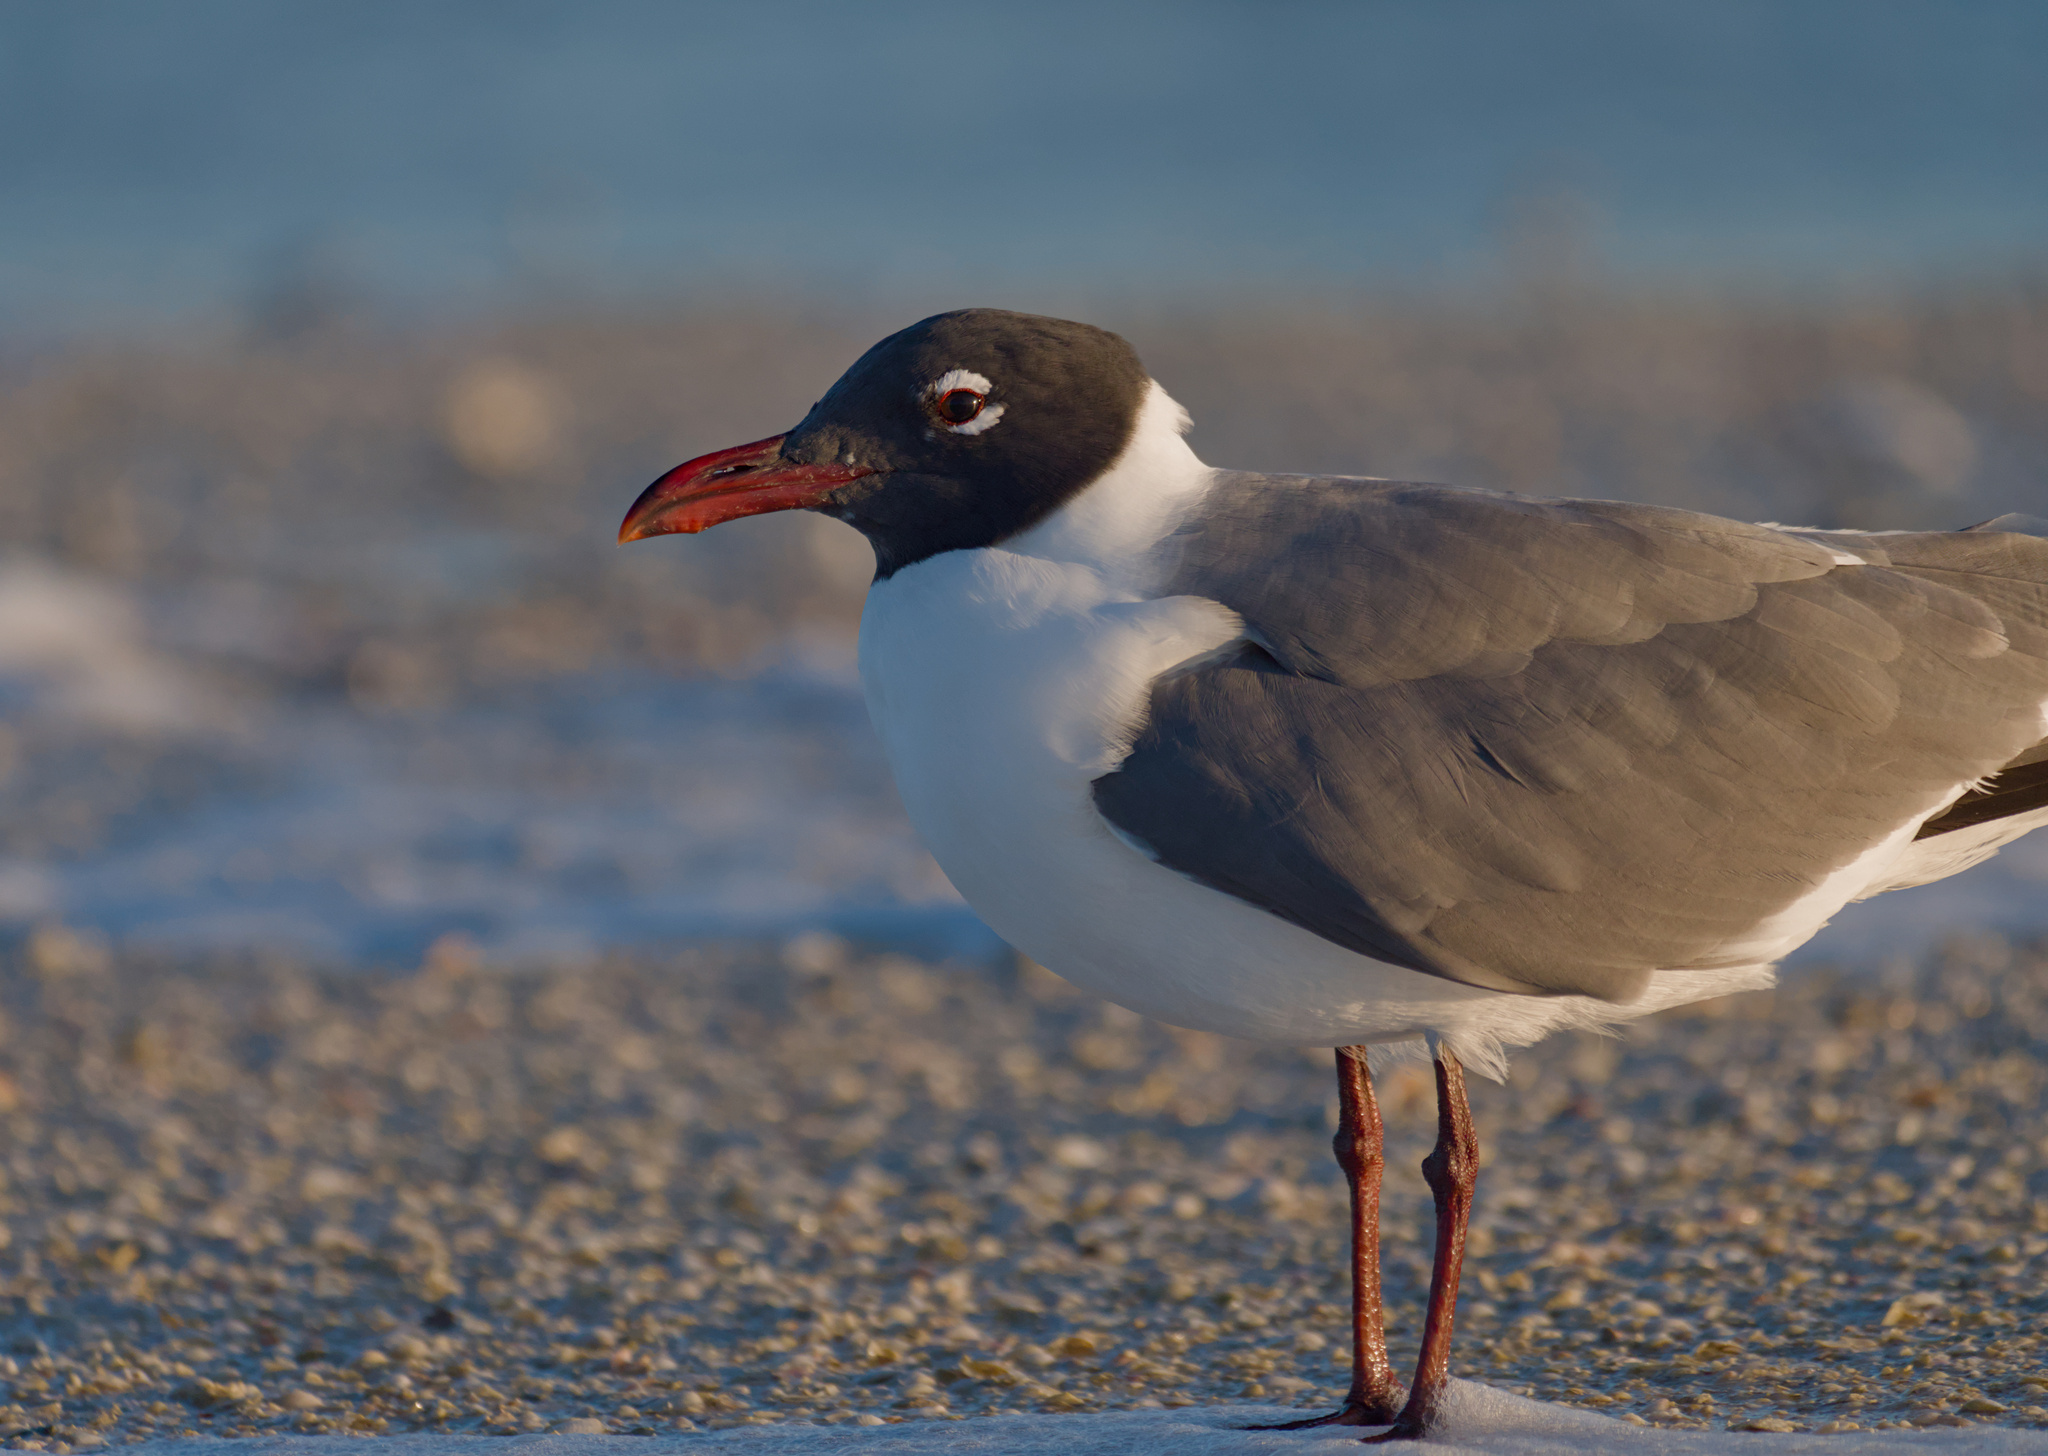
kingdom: Animalia
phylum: Chordata
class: Aves
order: Charadriiformes
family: Laridae
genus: Leucophaeus
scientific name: Leucophaeus atricilla
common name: Laughing gull
